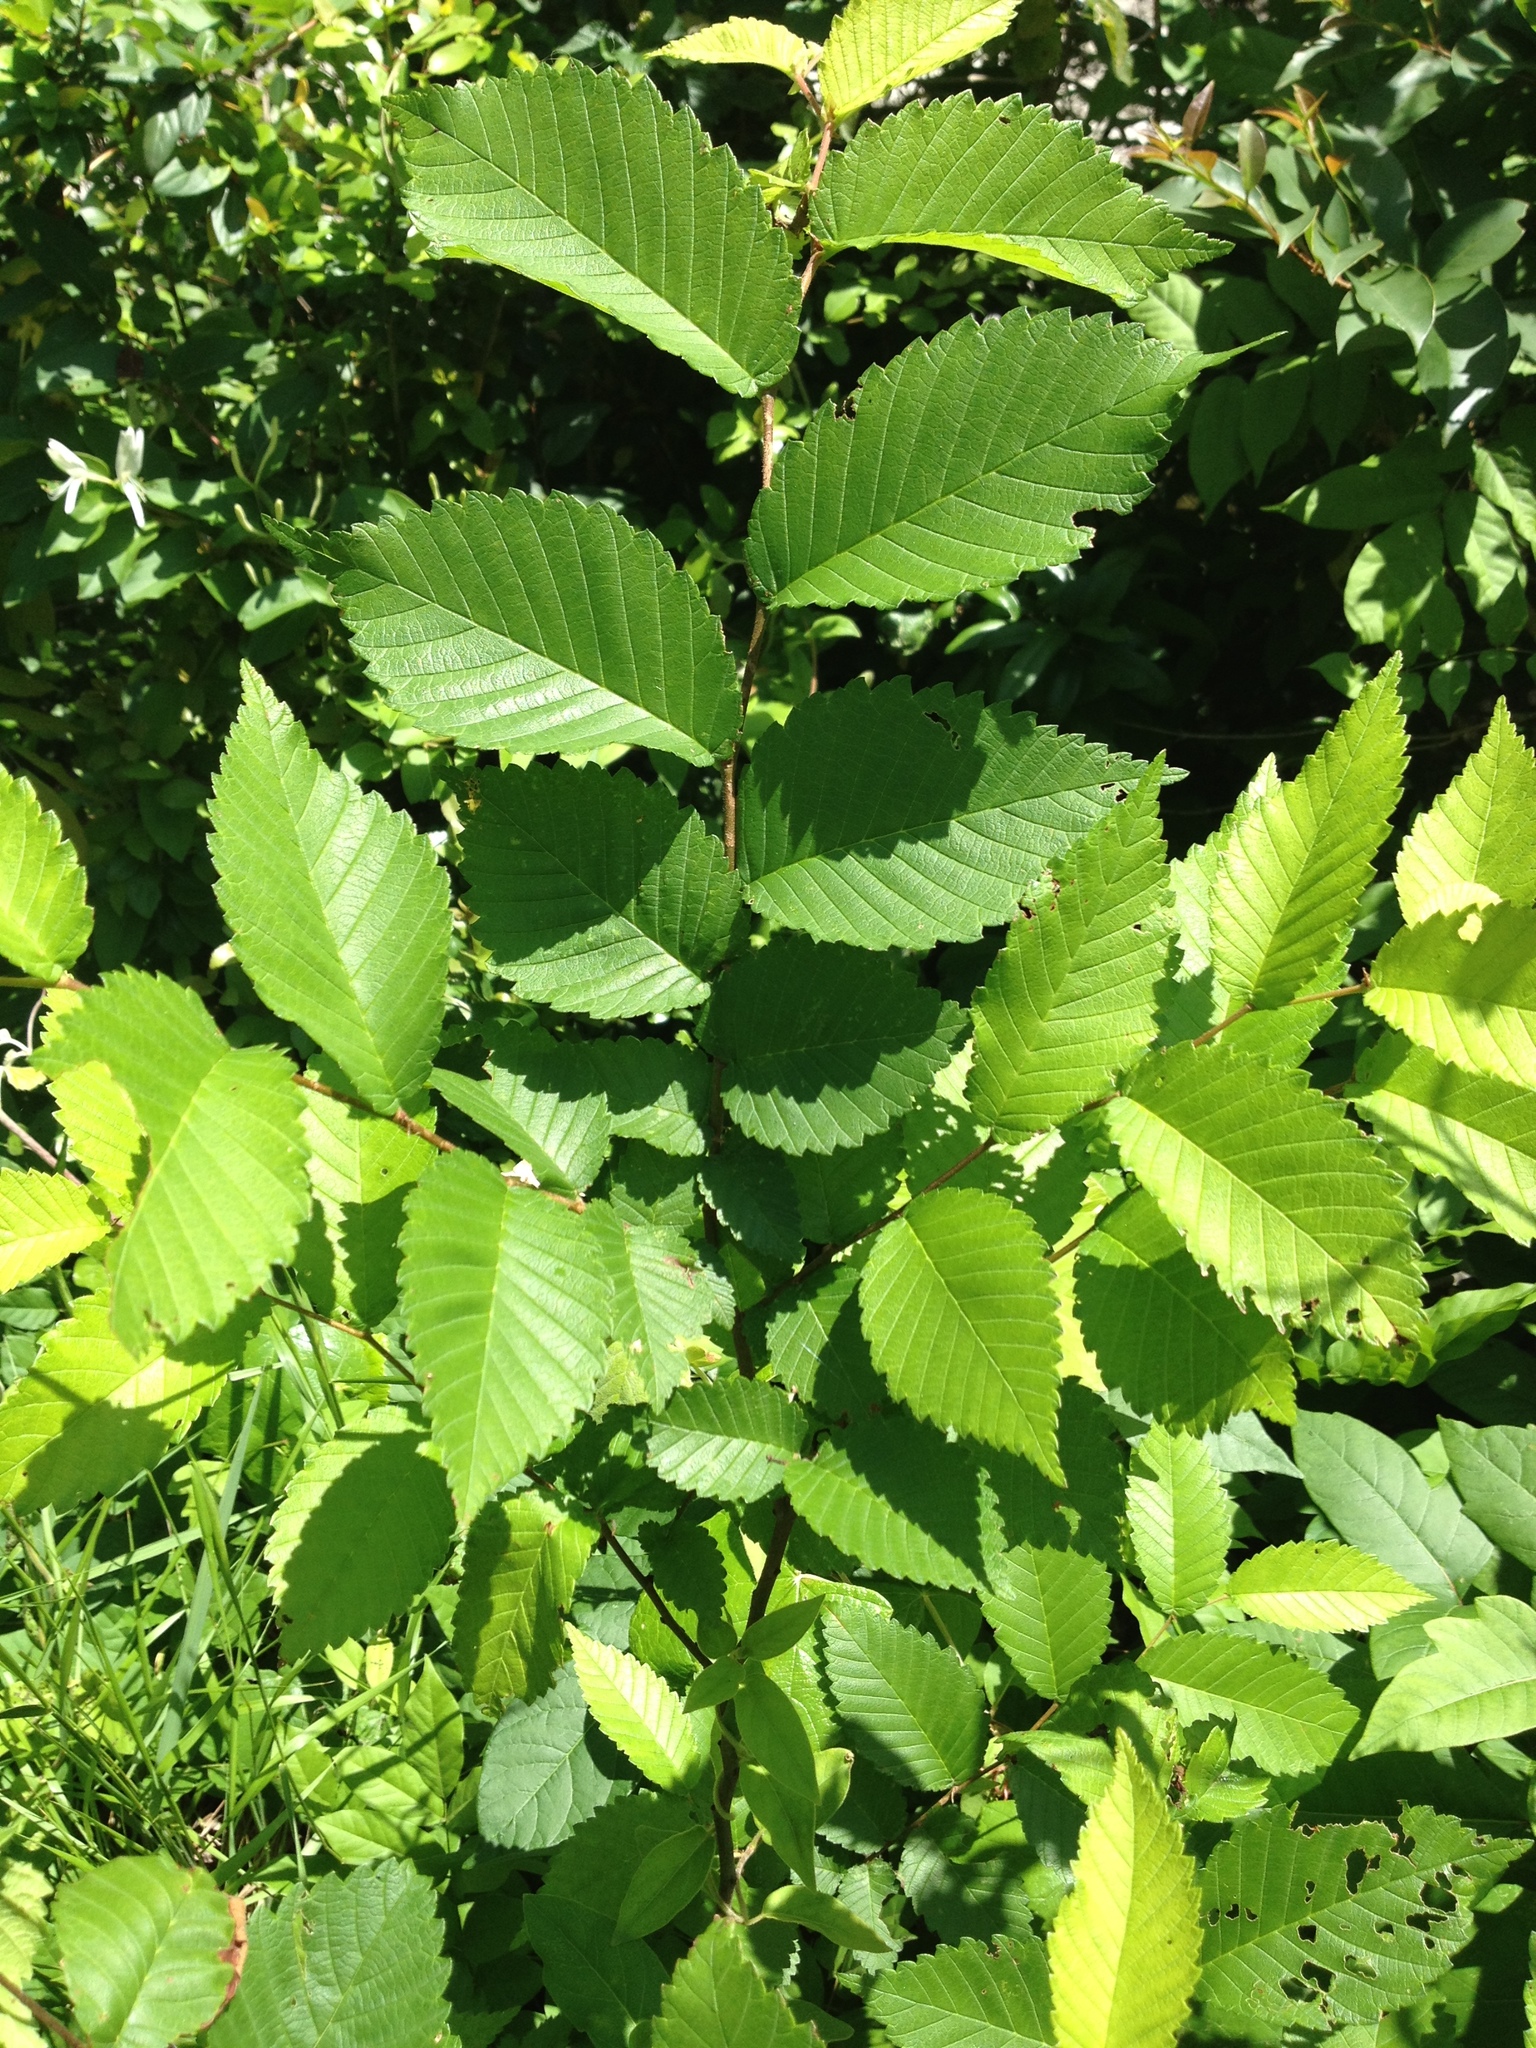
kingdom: Plantae
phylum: Tracheophyta
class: Magnoliopsida
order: Rosales
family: Ulmaceae
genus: Ulmus
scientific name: Ulmus americana
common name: American elm
